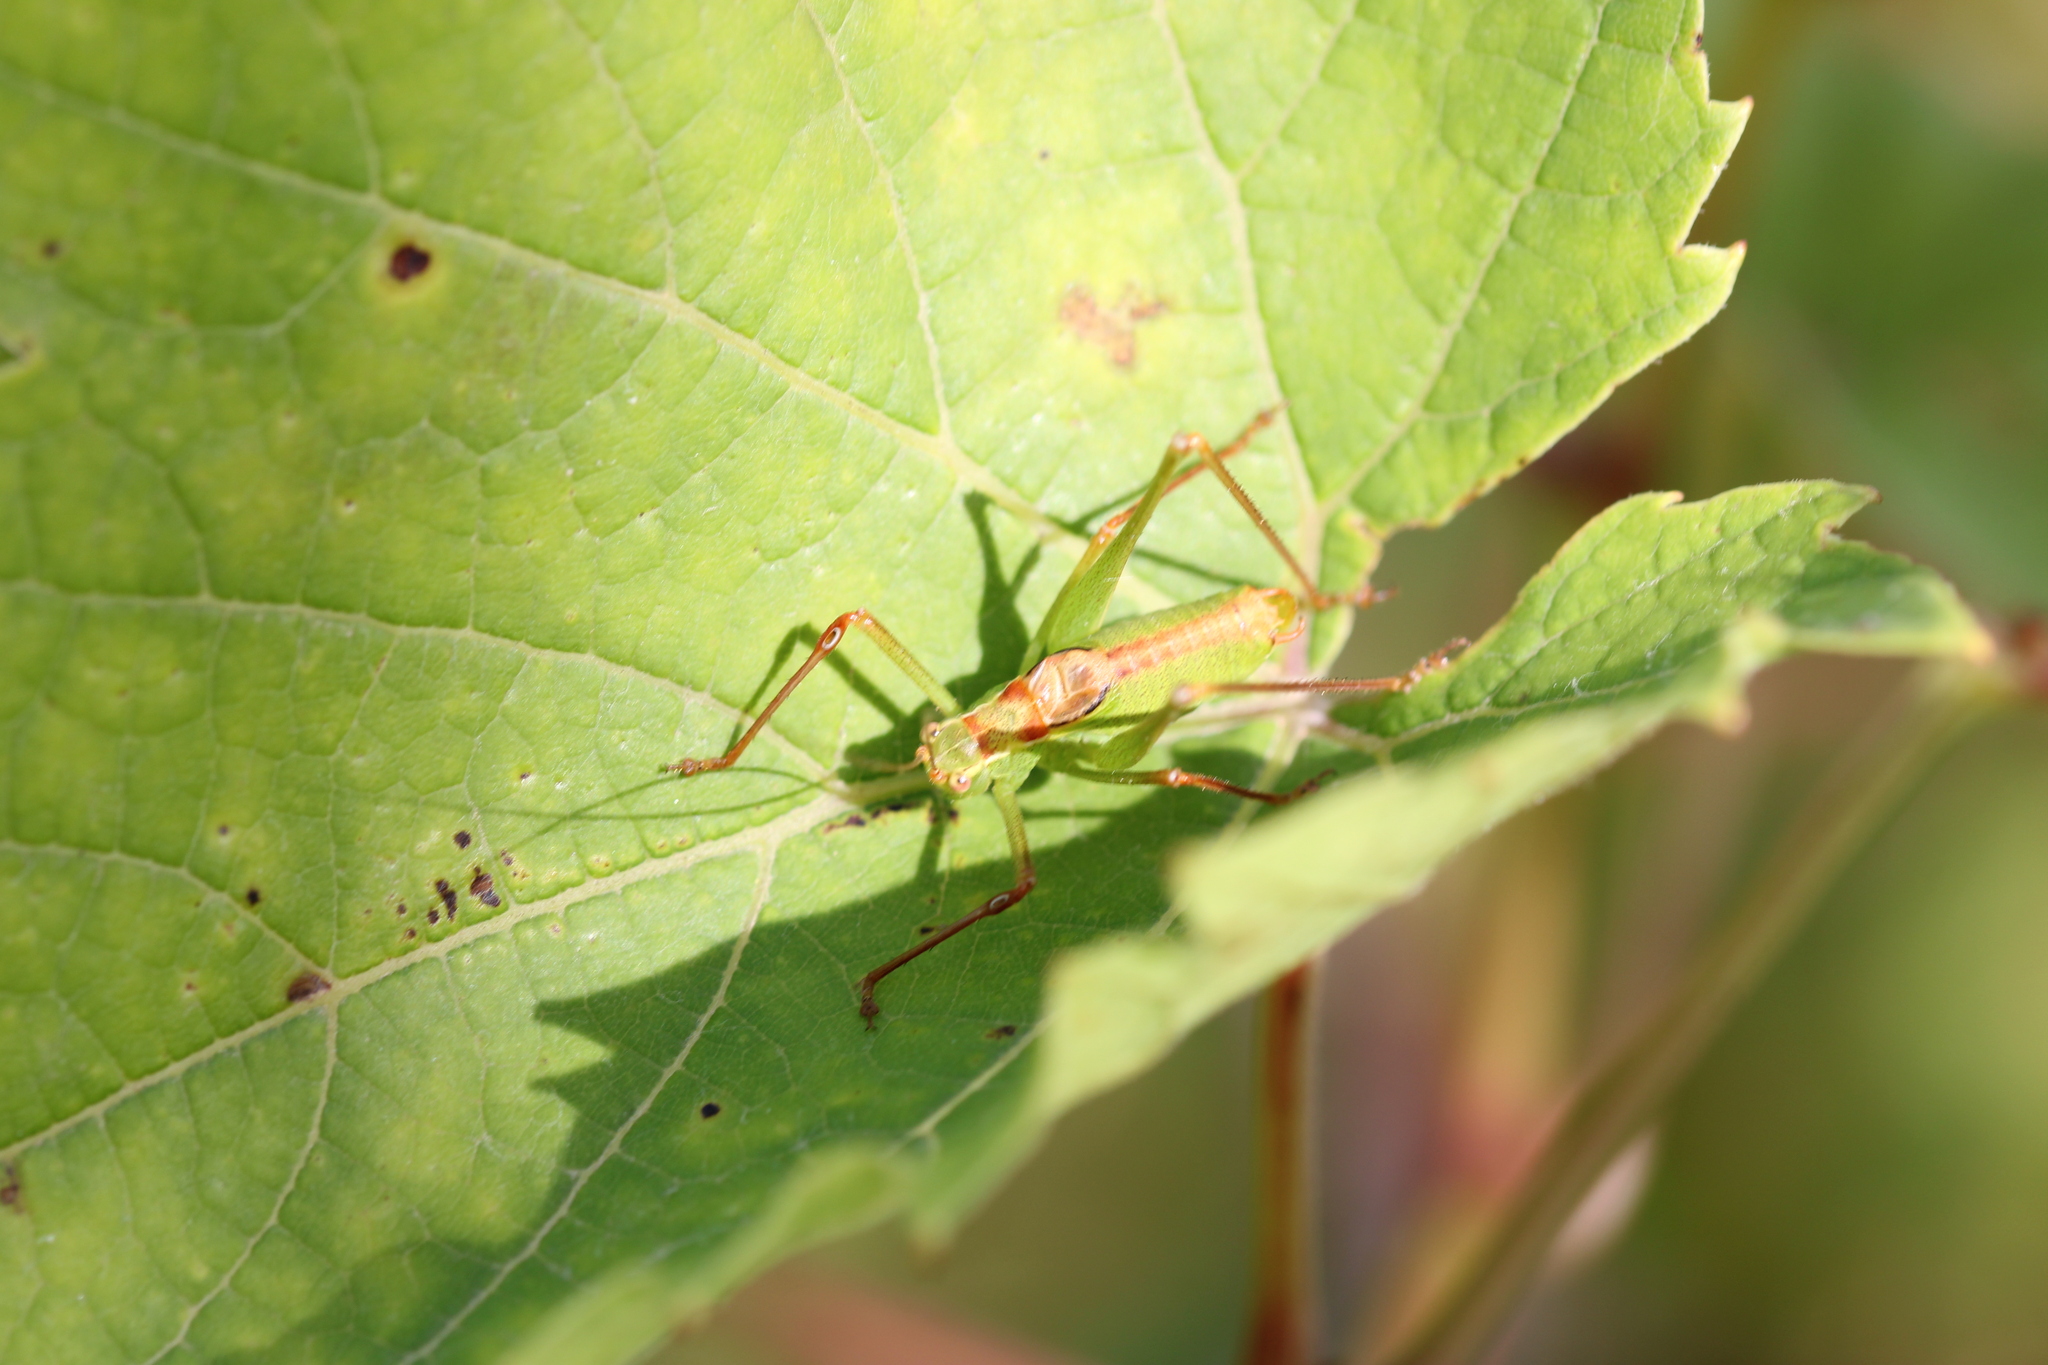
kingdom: Animalia
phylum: Arthropoda
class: Insecta
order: Orthoptera
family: Tettigoniidae
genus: Leptophyes
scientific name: Leptophyes punctatissima
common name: Speckled bush-cricket
